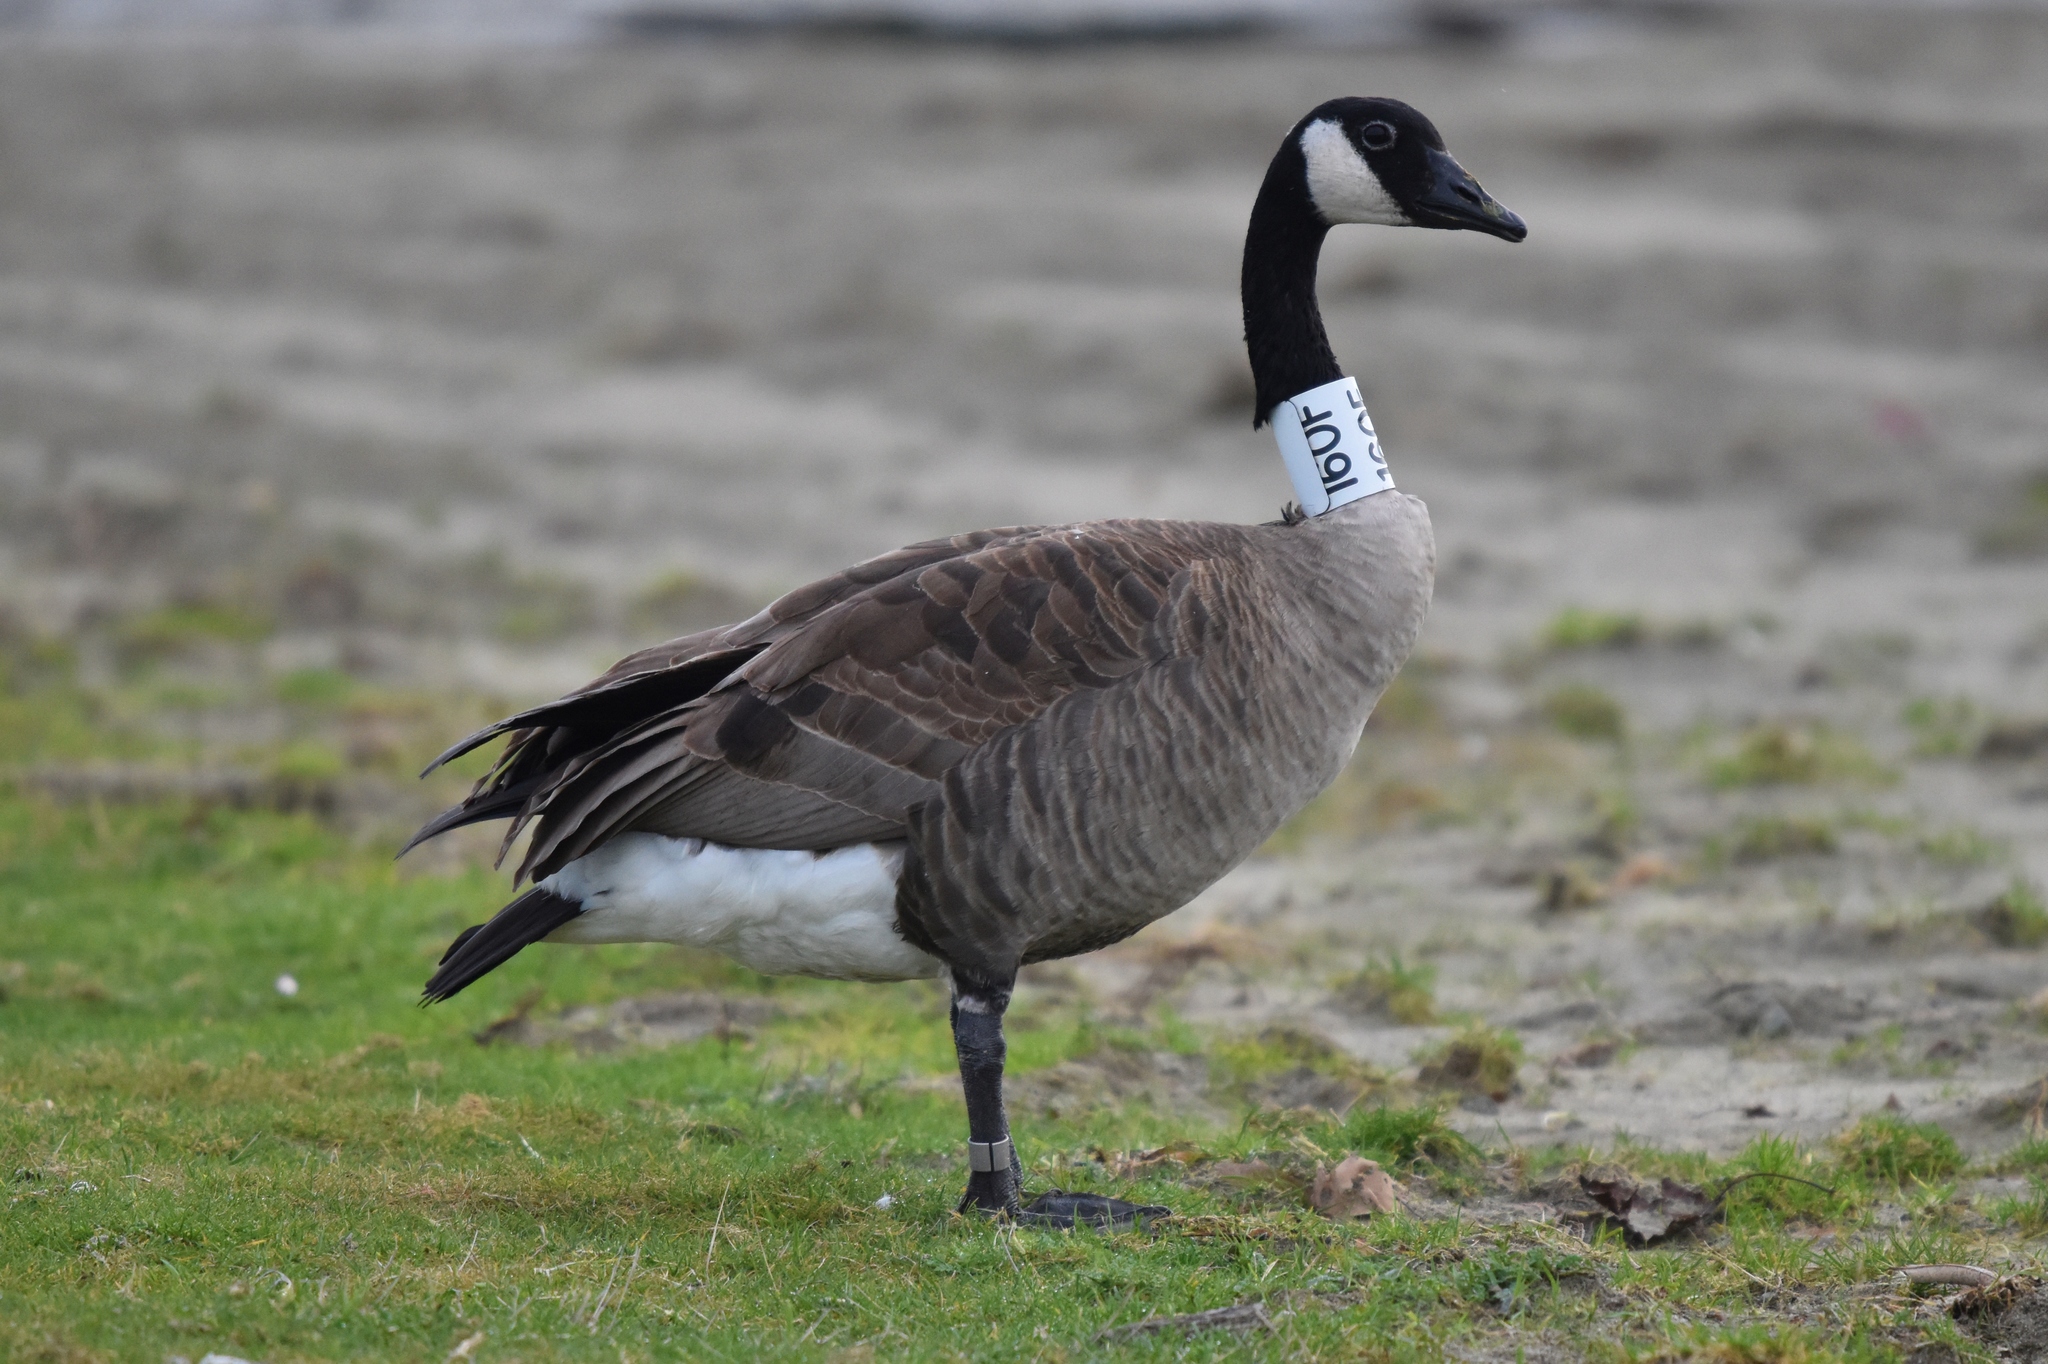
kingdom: Animalia
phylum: Chordata
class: Aves
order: Anseriformes
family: Anatidae
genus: Branta
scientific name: Branta canadensis
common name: Canada goose
